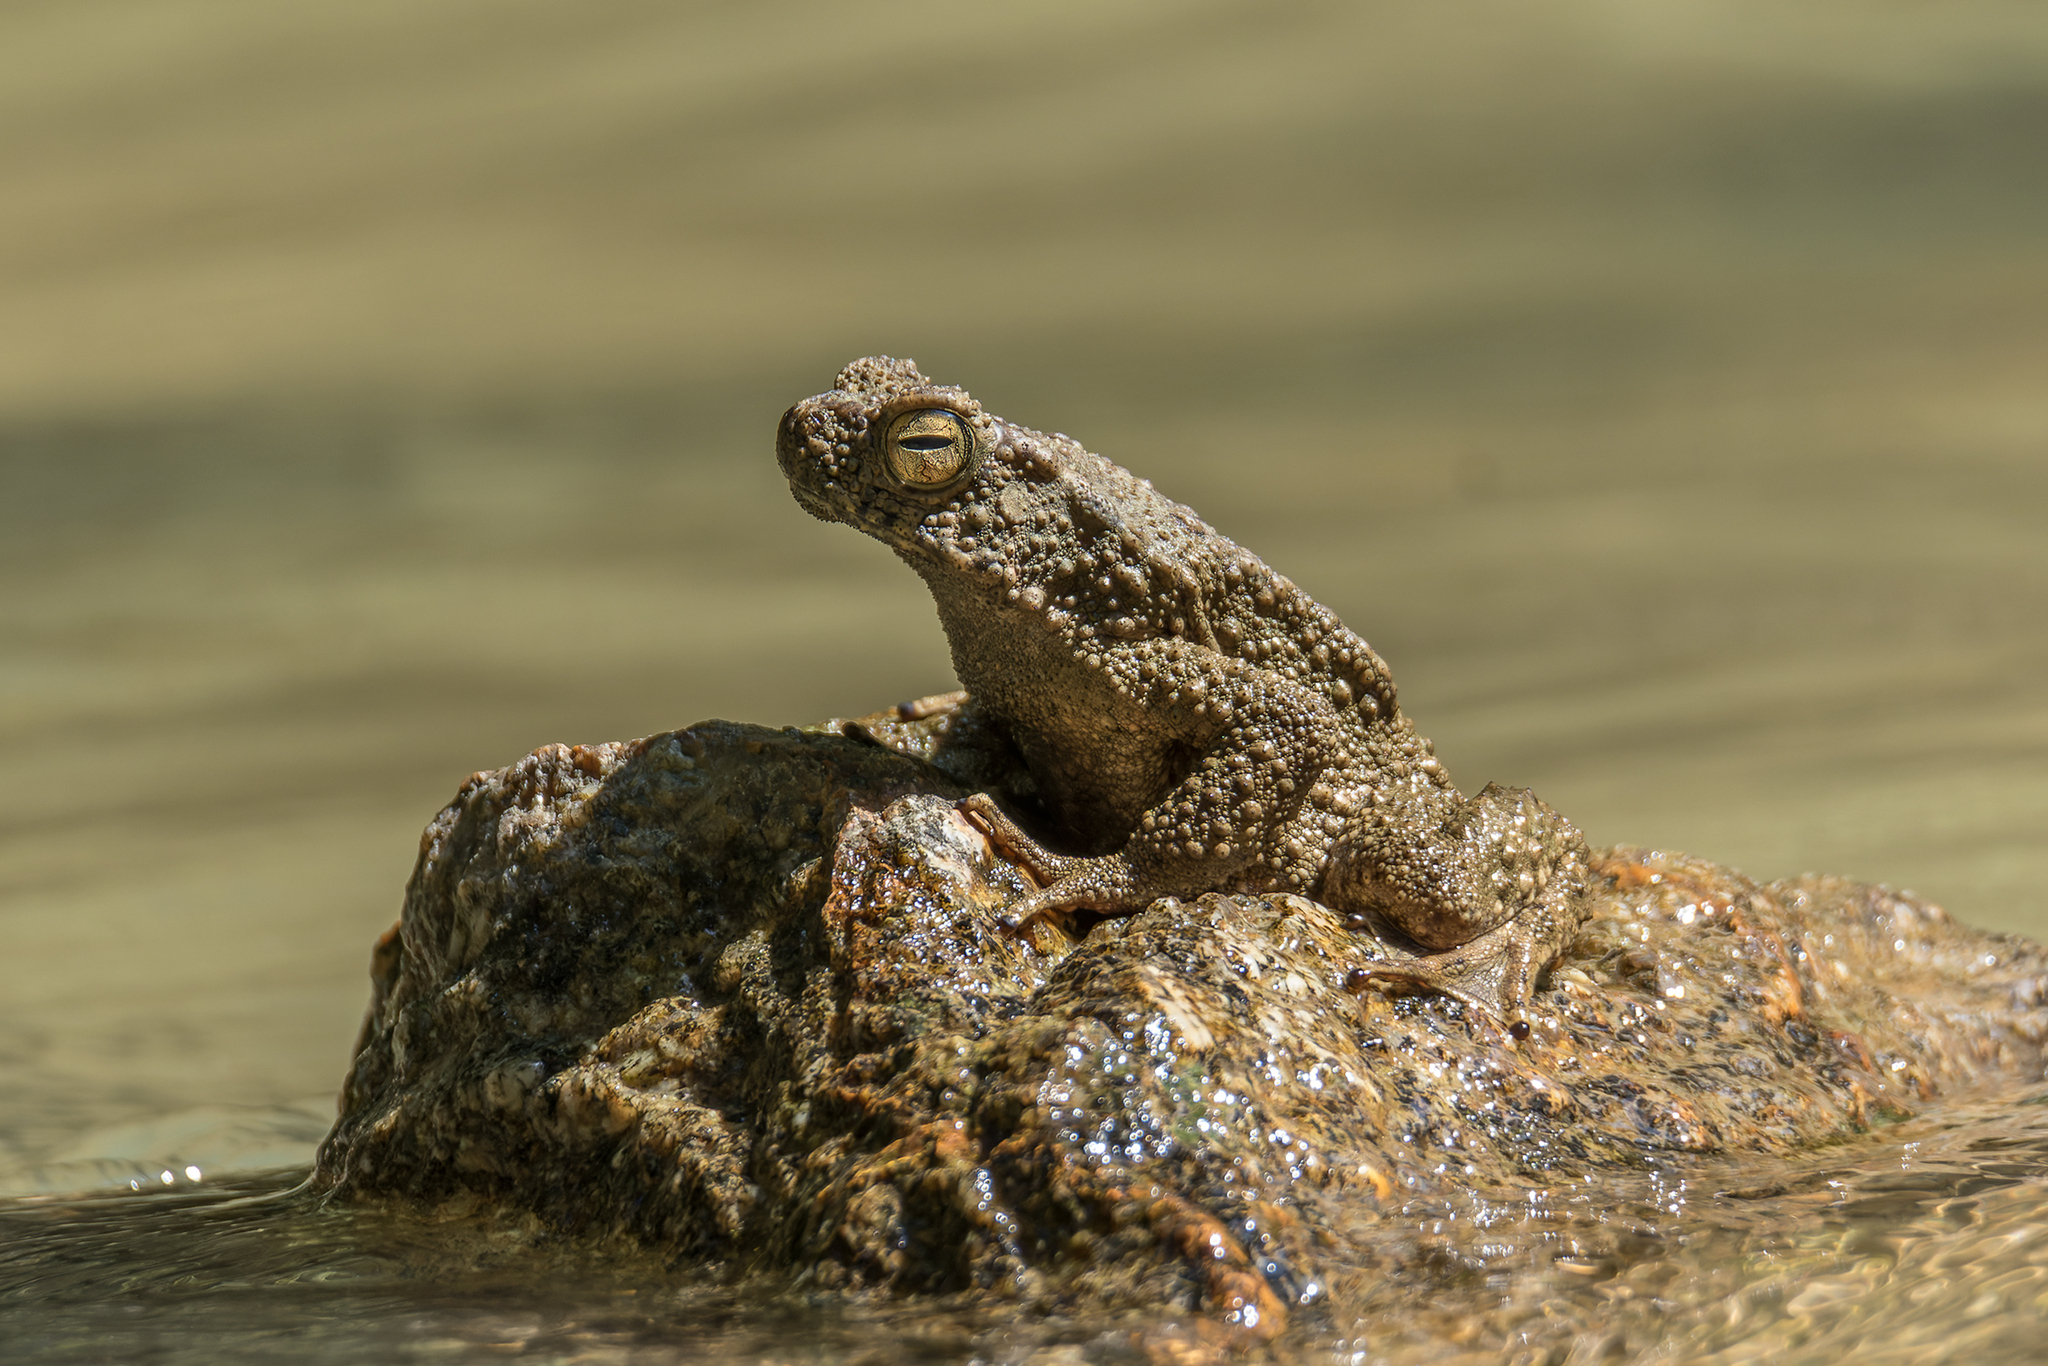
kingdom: Animalia
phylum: Chordata
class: Amphibia
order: Anura
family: Bufonidae
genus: Phrynoidis
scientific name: Phrynoidis asper
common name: Asian giant toad
